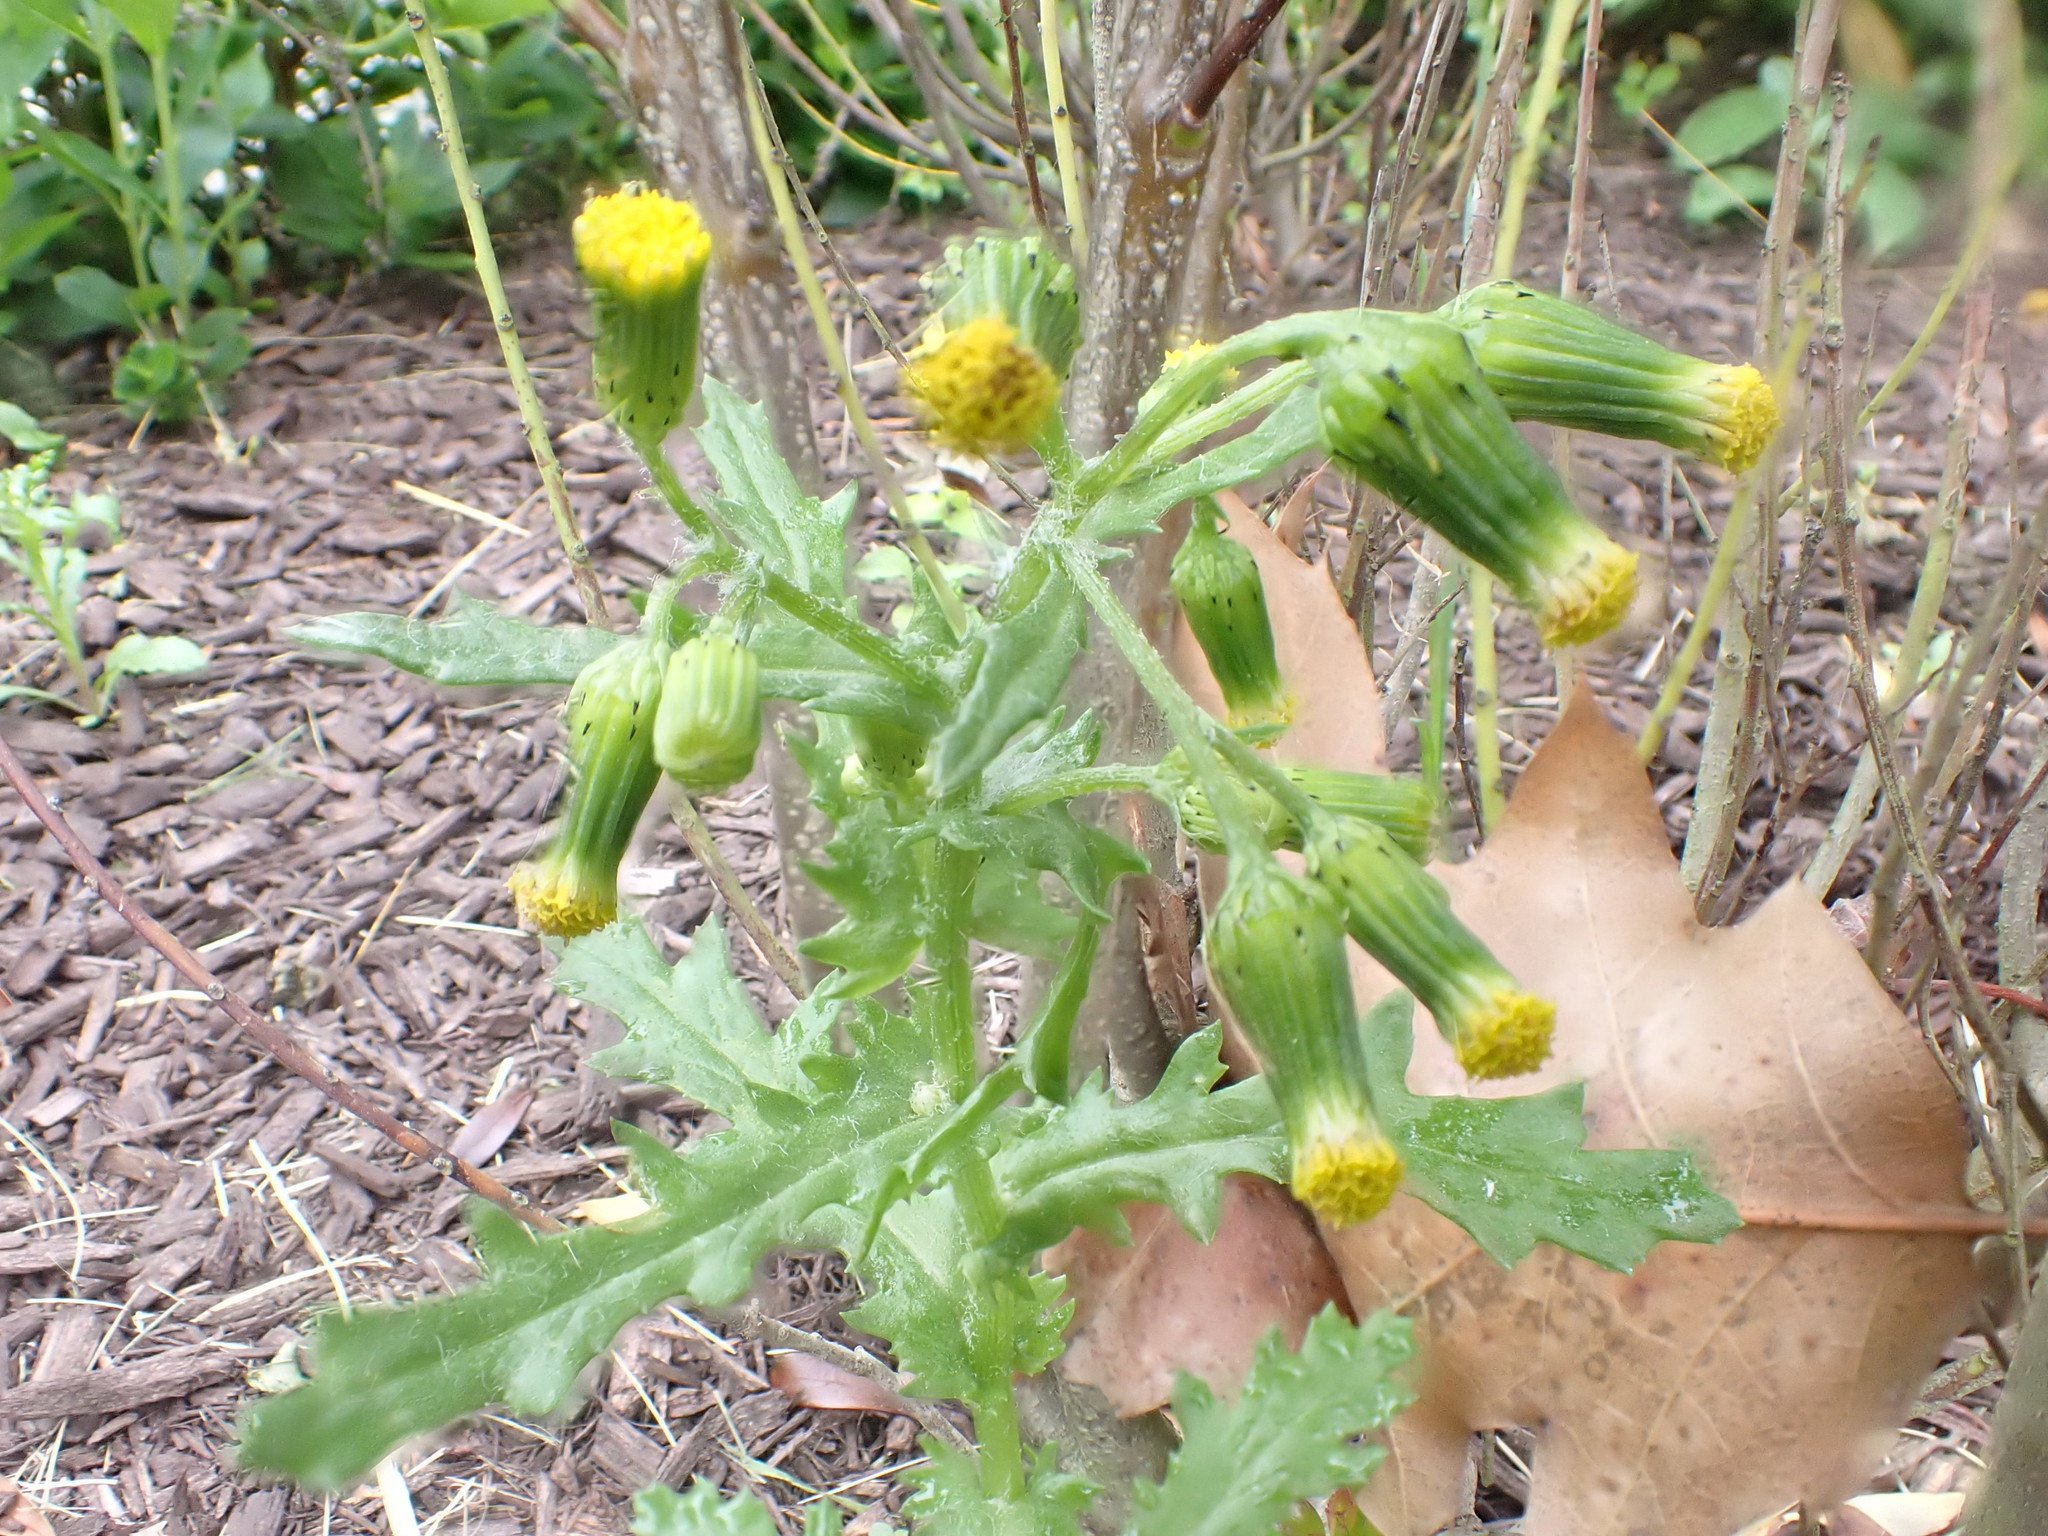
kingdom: Plantae
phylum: Tracheophyta
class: Magnoliopsida
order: Asterales
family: Asteraceae
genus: Senecio
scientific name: Senecio vulgaris
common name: Old-man-in-the-spring
